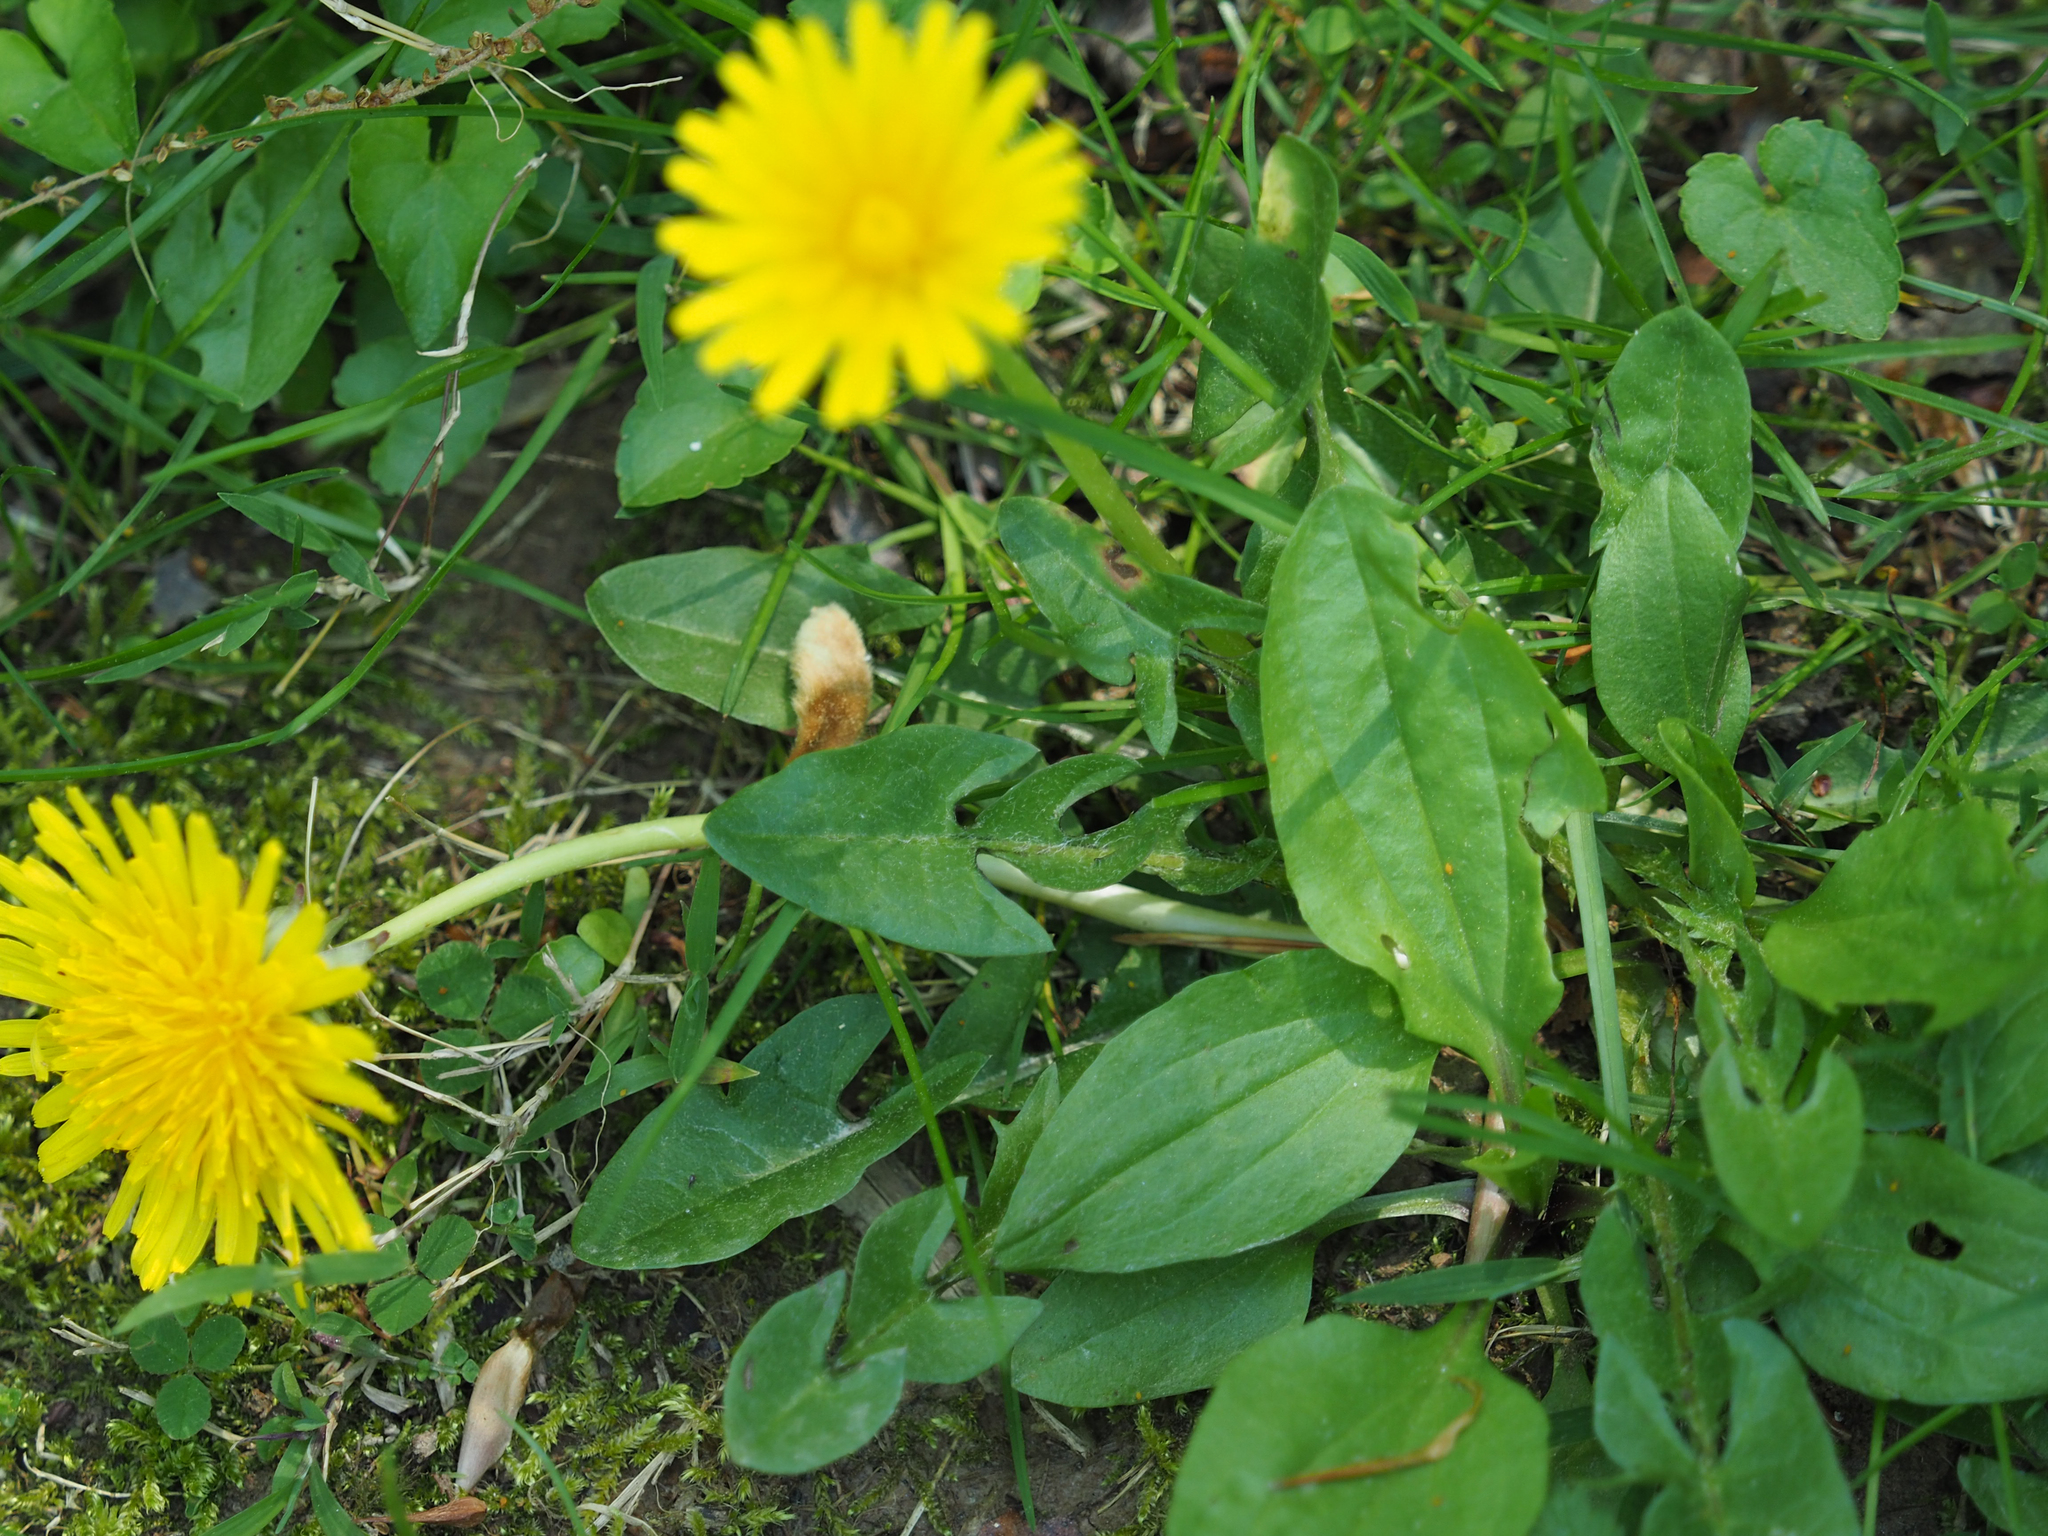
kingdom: Plantae
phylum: Tracheophyta
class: Magnoliopsida
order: Asterales
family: Asteraceae
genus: Taraxacum
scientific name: Taraxacum officinale
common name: Common dandelion
